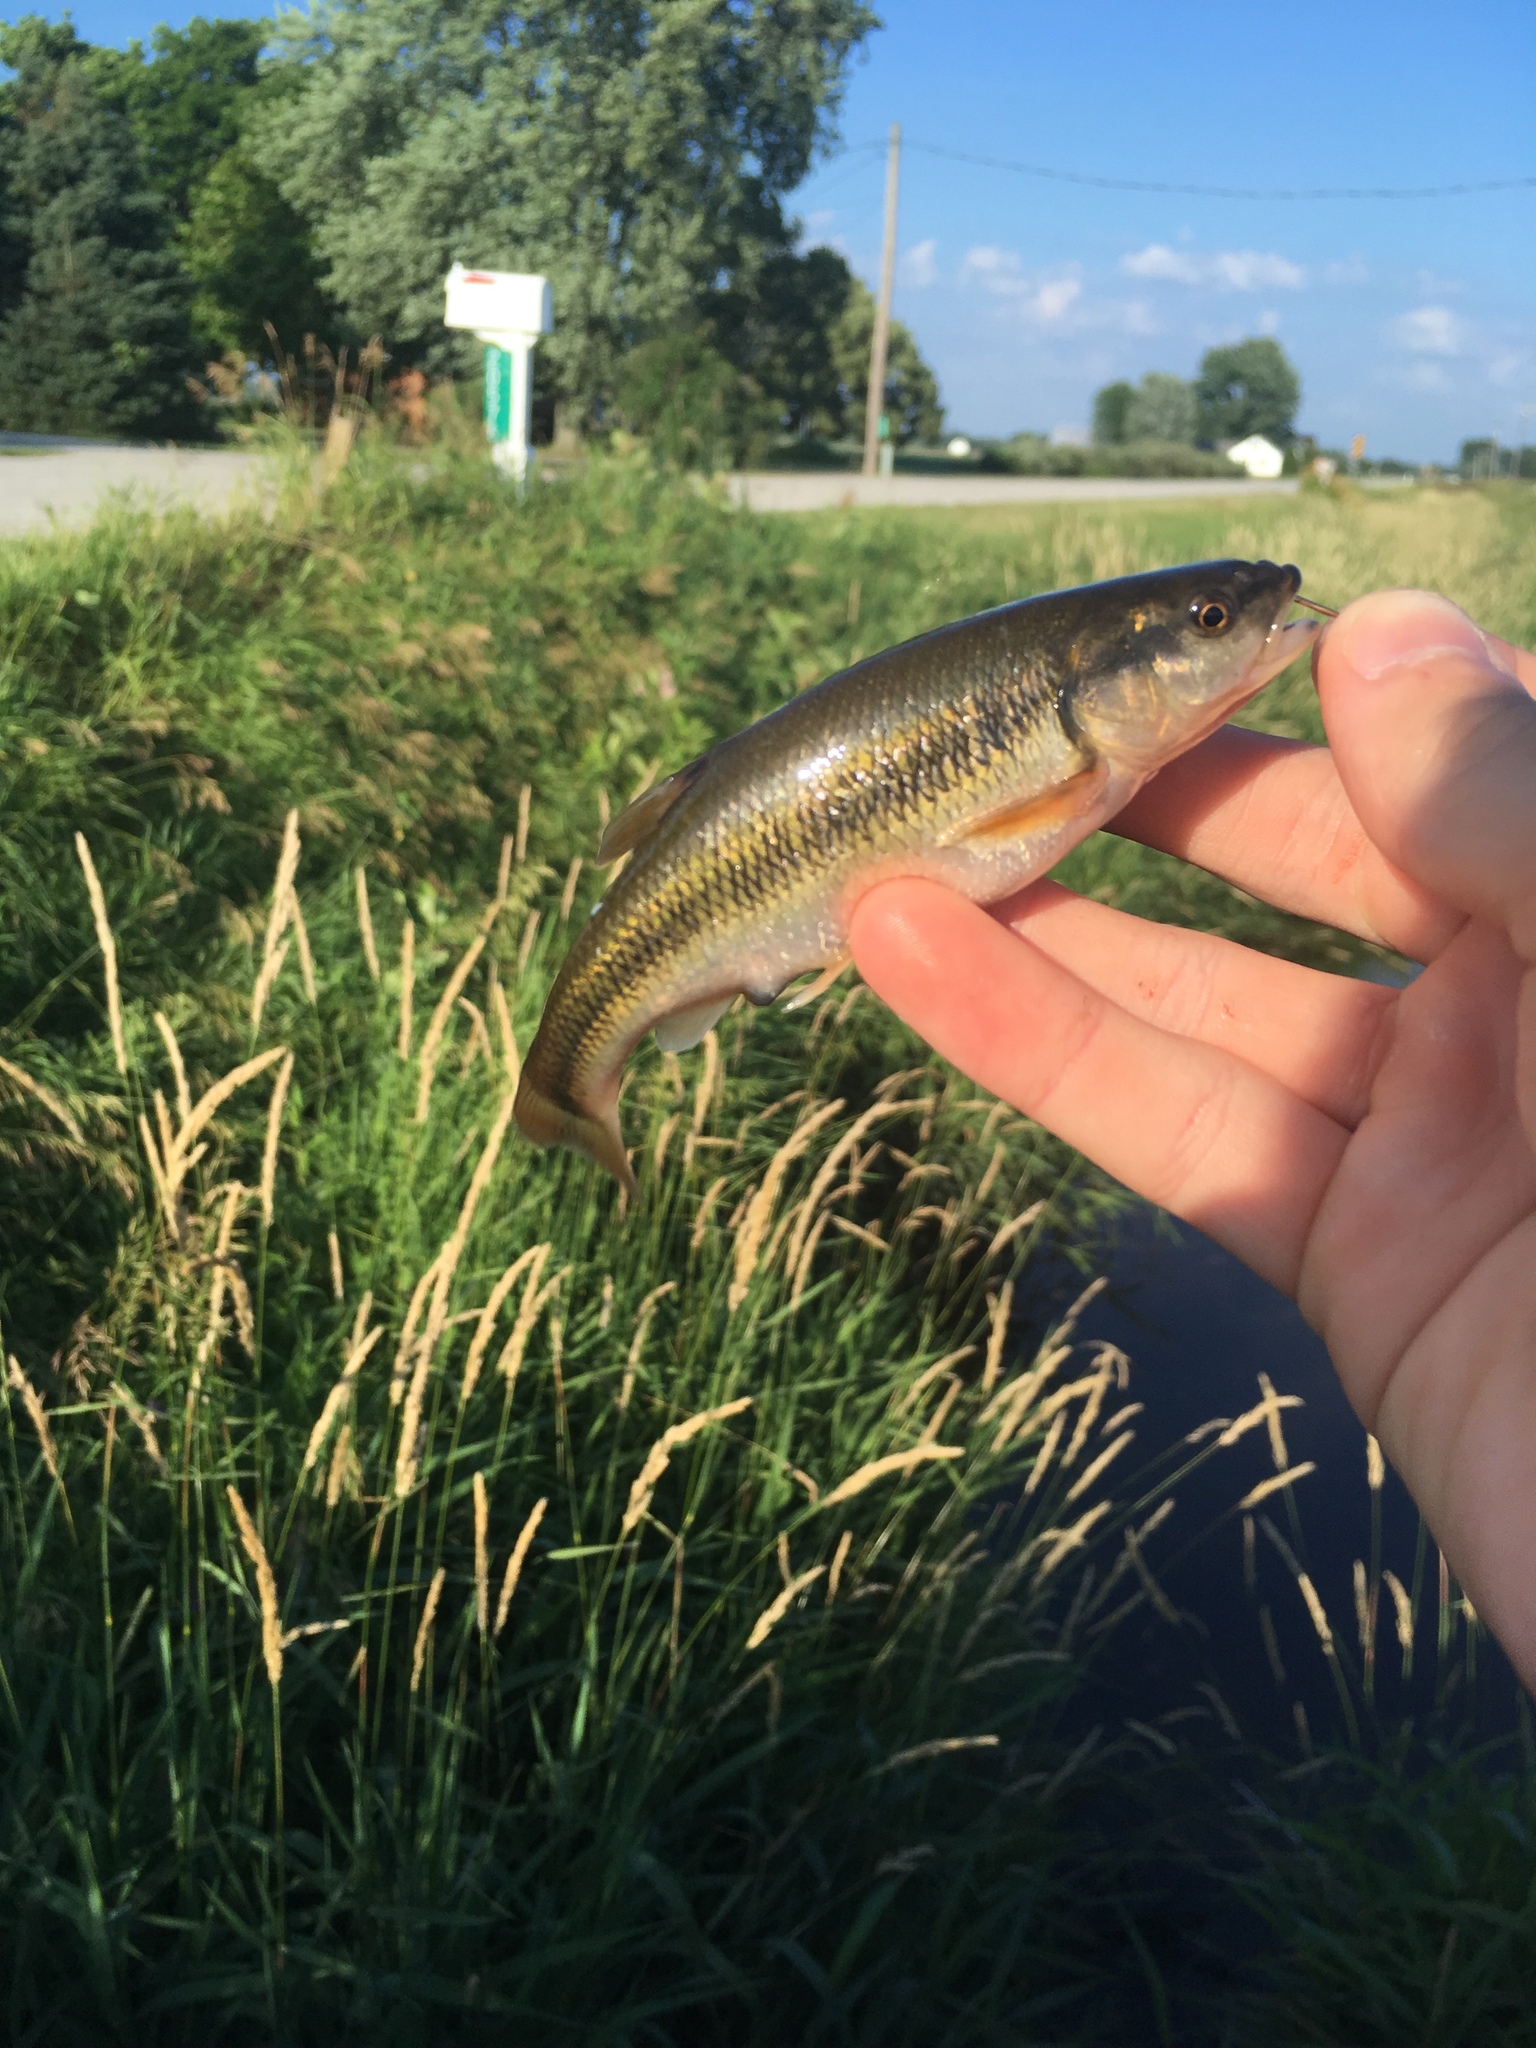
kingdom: Animalia
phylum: Chordata
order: Cypriniformes
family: Cyprinidae
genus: Semotilus
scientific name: Semotilus atromaculatus
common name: Creek chub
